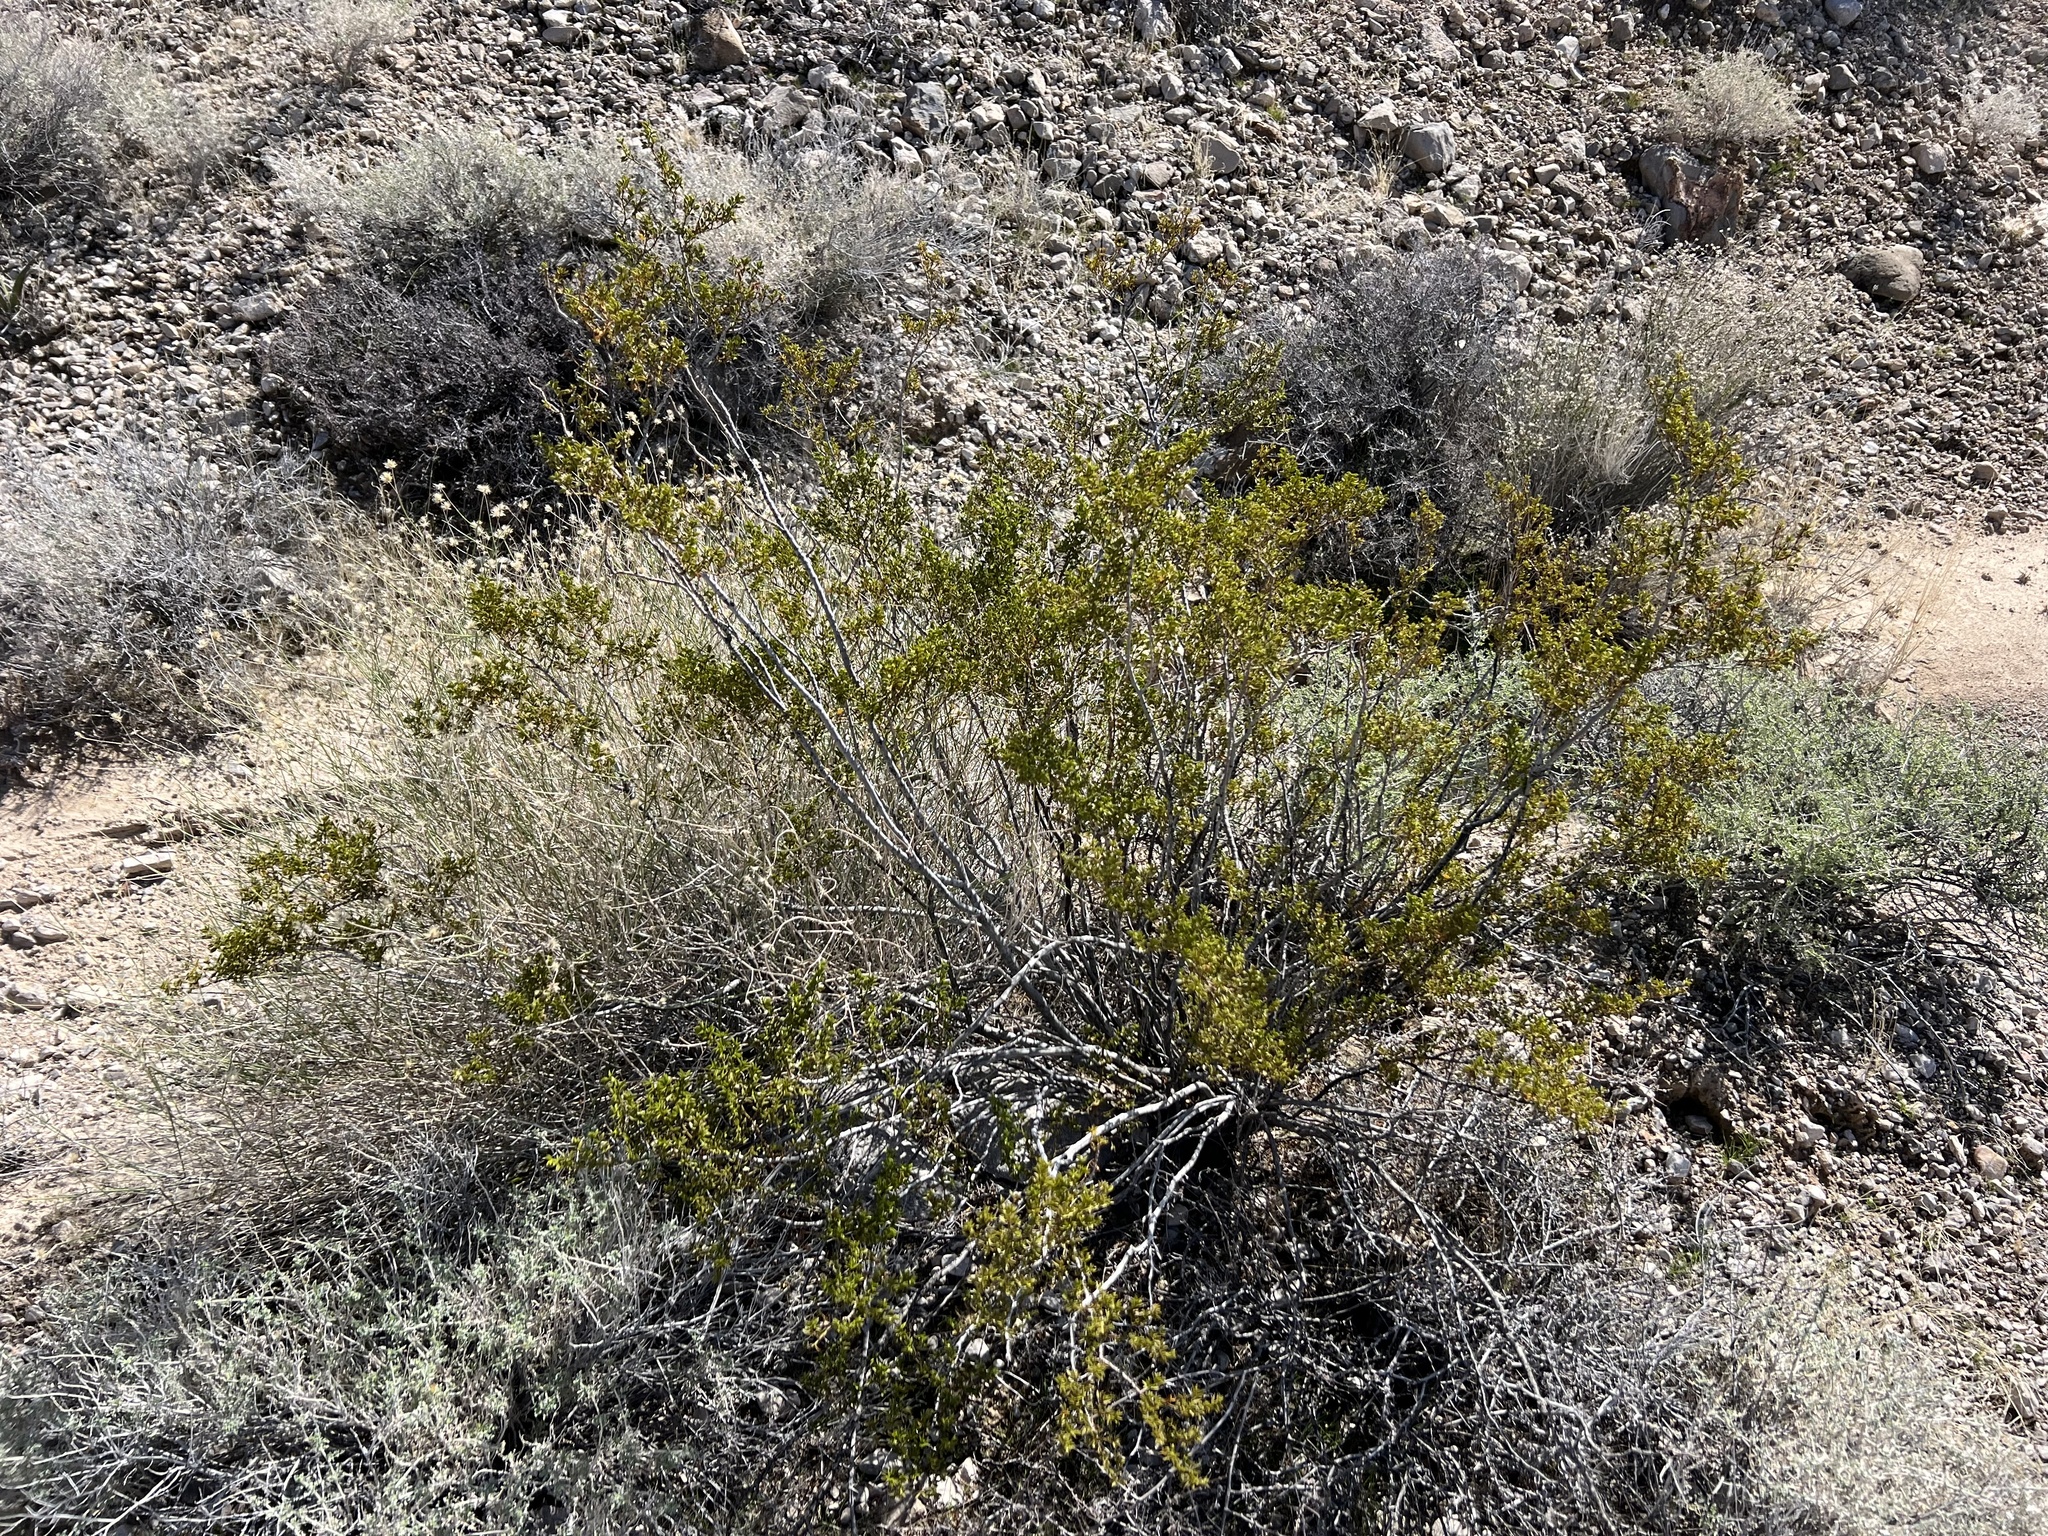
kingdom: Plantae
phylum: Tracheophyta
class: Magnoliopsida
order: Zygophyllales
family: Zygophyllaceae
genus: Larrea
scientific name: Larrea tridentata
